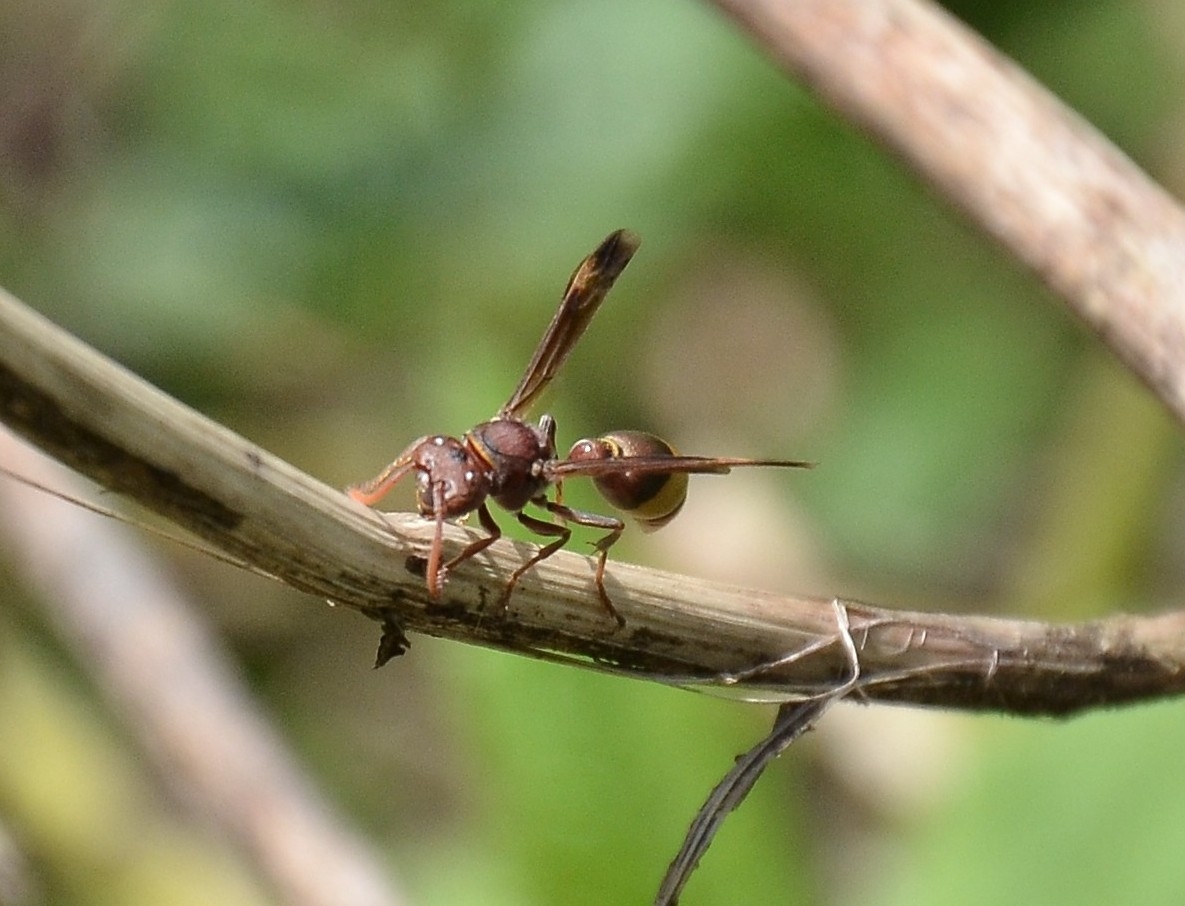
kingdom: Animalia
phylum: Arthropoda
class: Insecta
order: Hymenoptera
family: Vespidae
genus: Ropalidia
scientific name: Ropalidia
